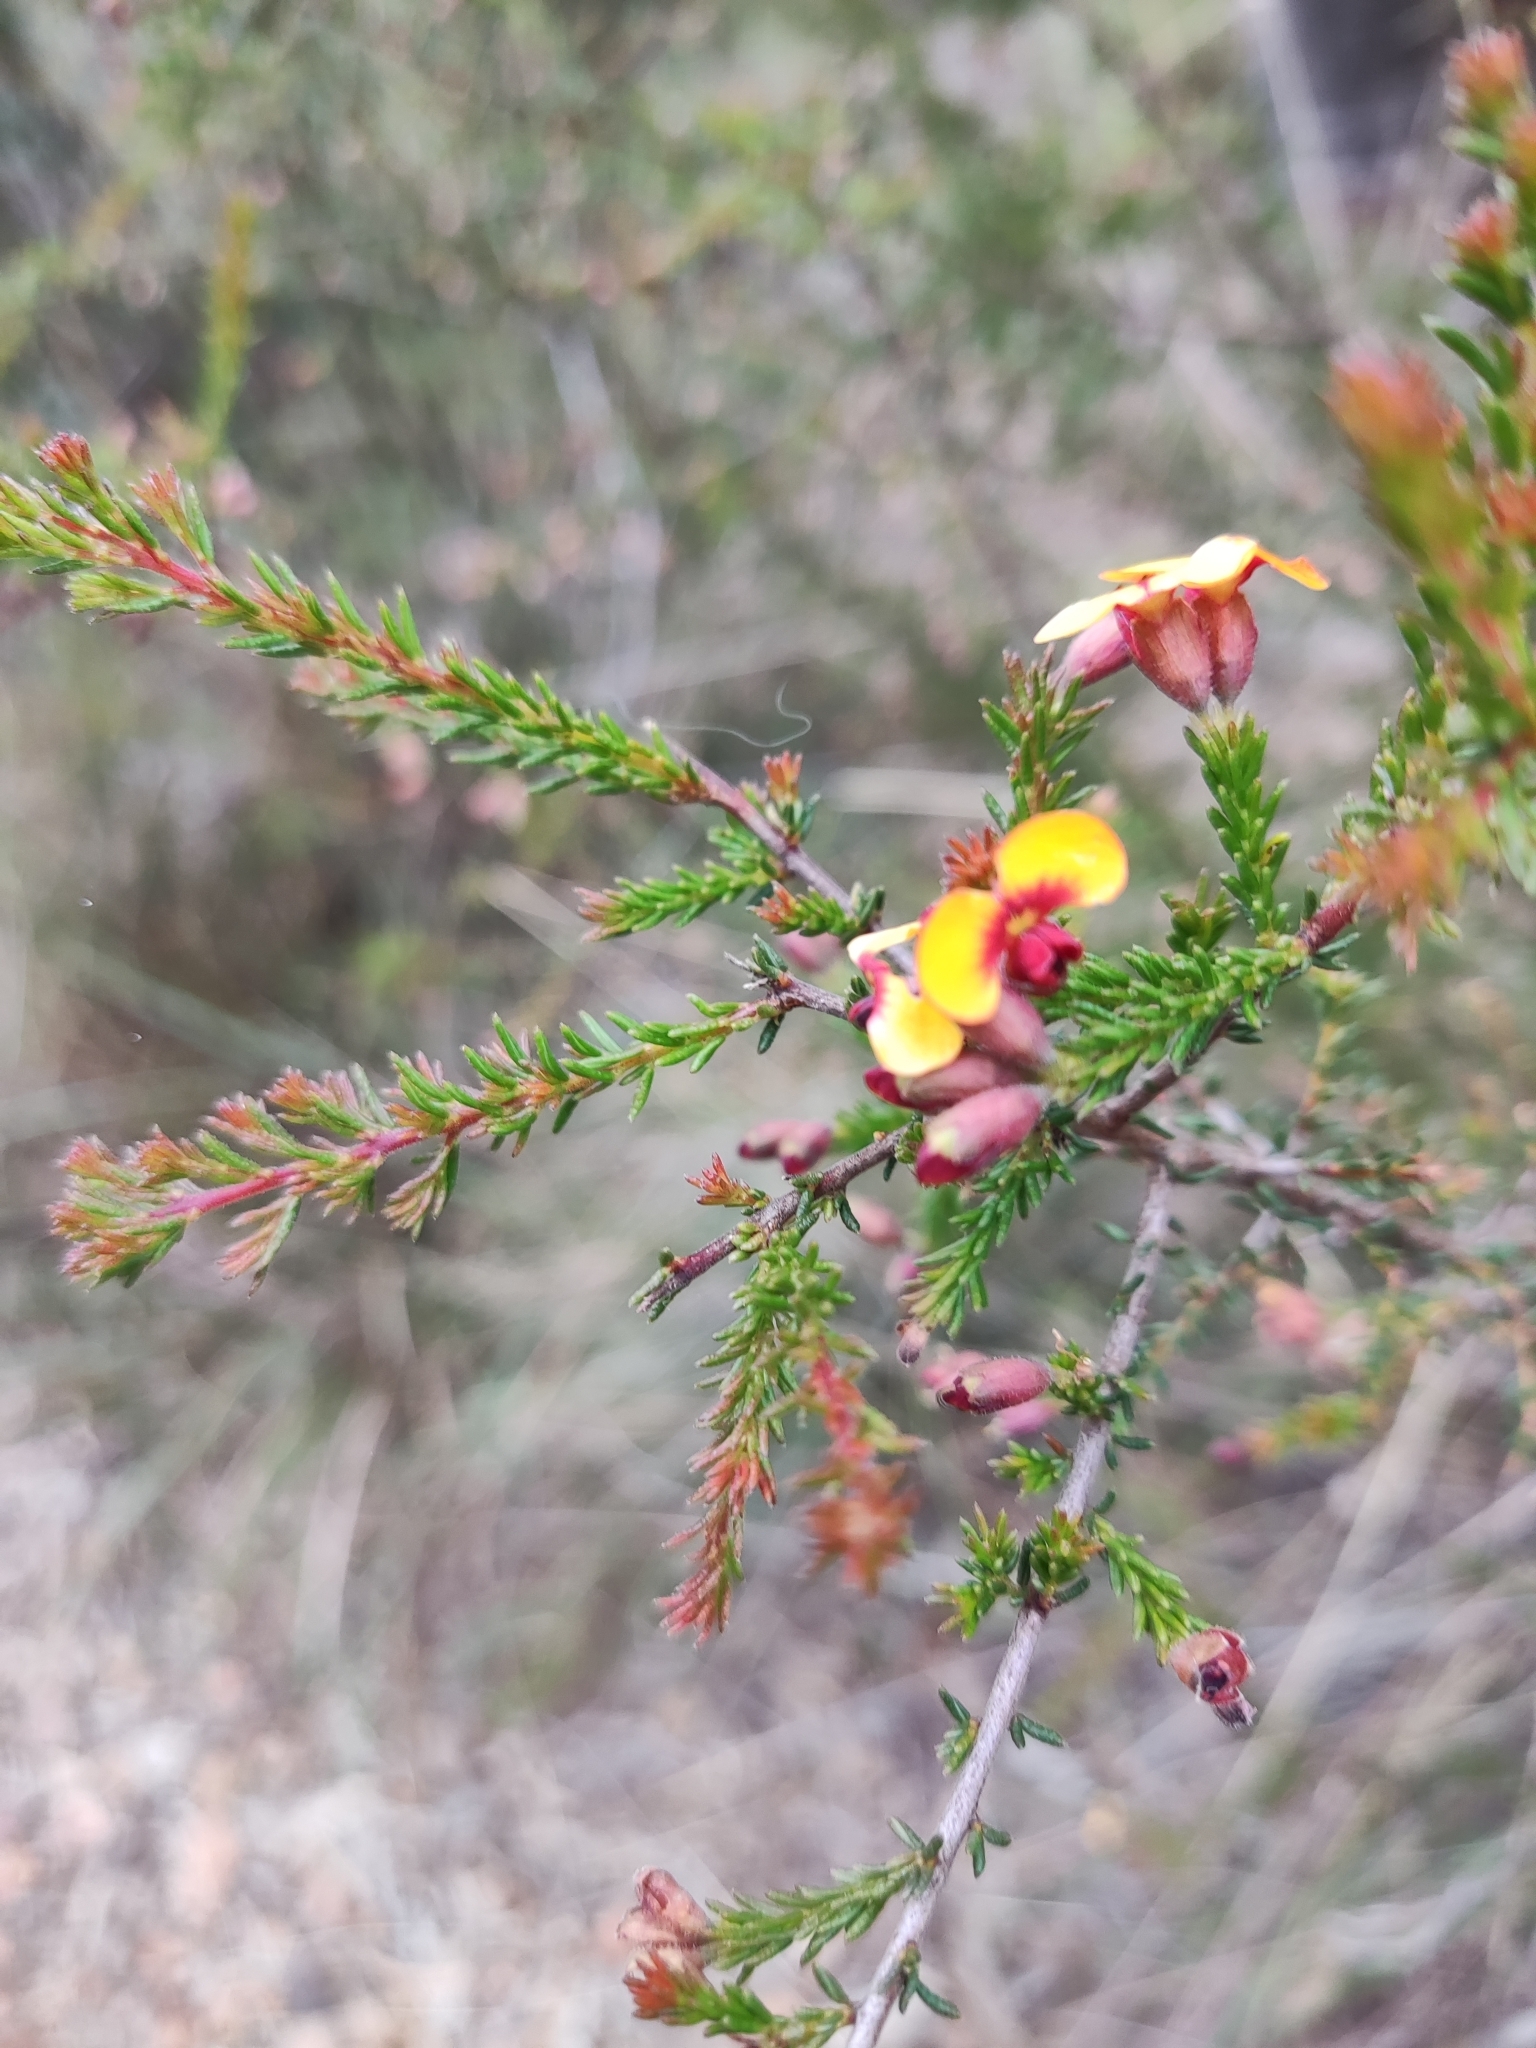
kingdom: Plantae
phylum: Tracheophyta
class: Magnoliopsida
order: Fabales
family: Fabaceae
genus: Dillwynia
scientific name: Dillwynia phylicoides
